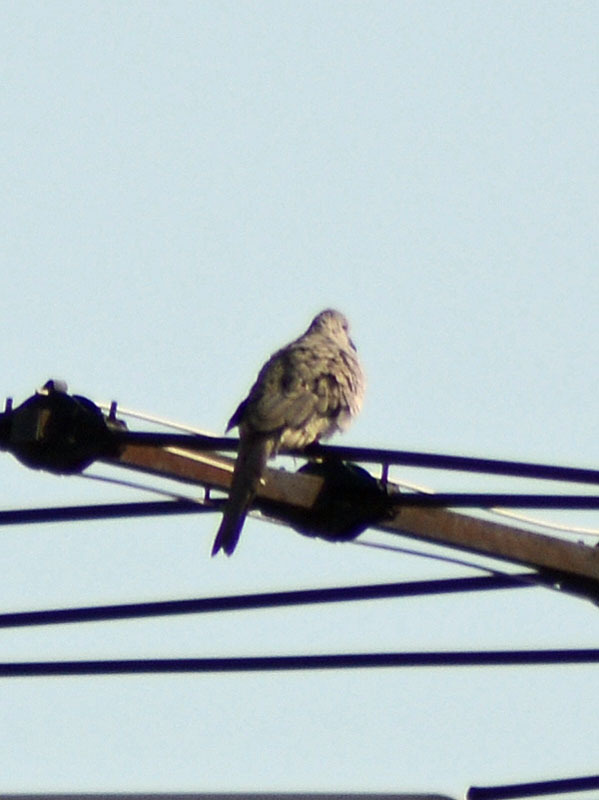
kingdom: Animalia
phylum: Chordata
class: Aves
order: Columbiformes
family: Columbidae
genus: Columbina
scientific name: Columbina inca
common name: Inca dove
